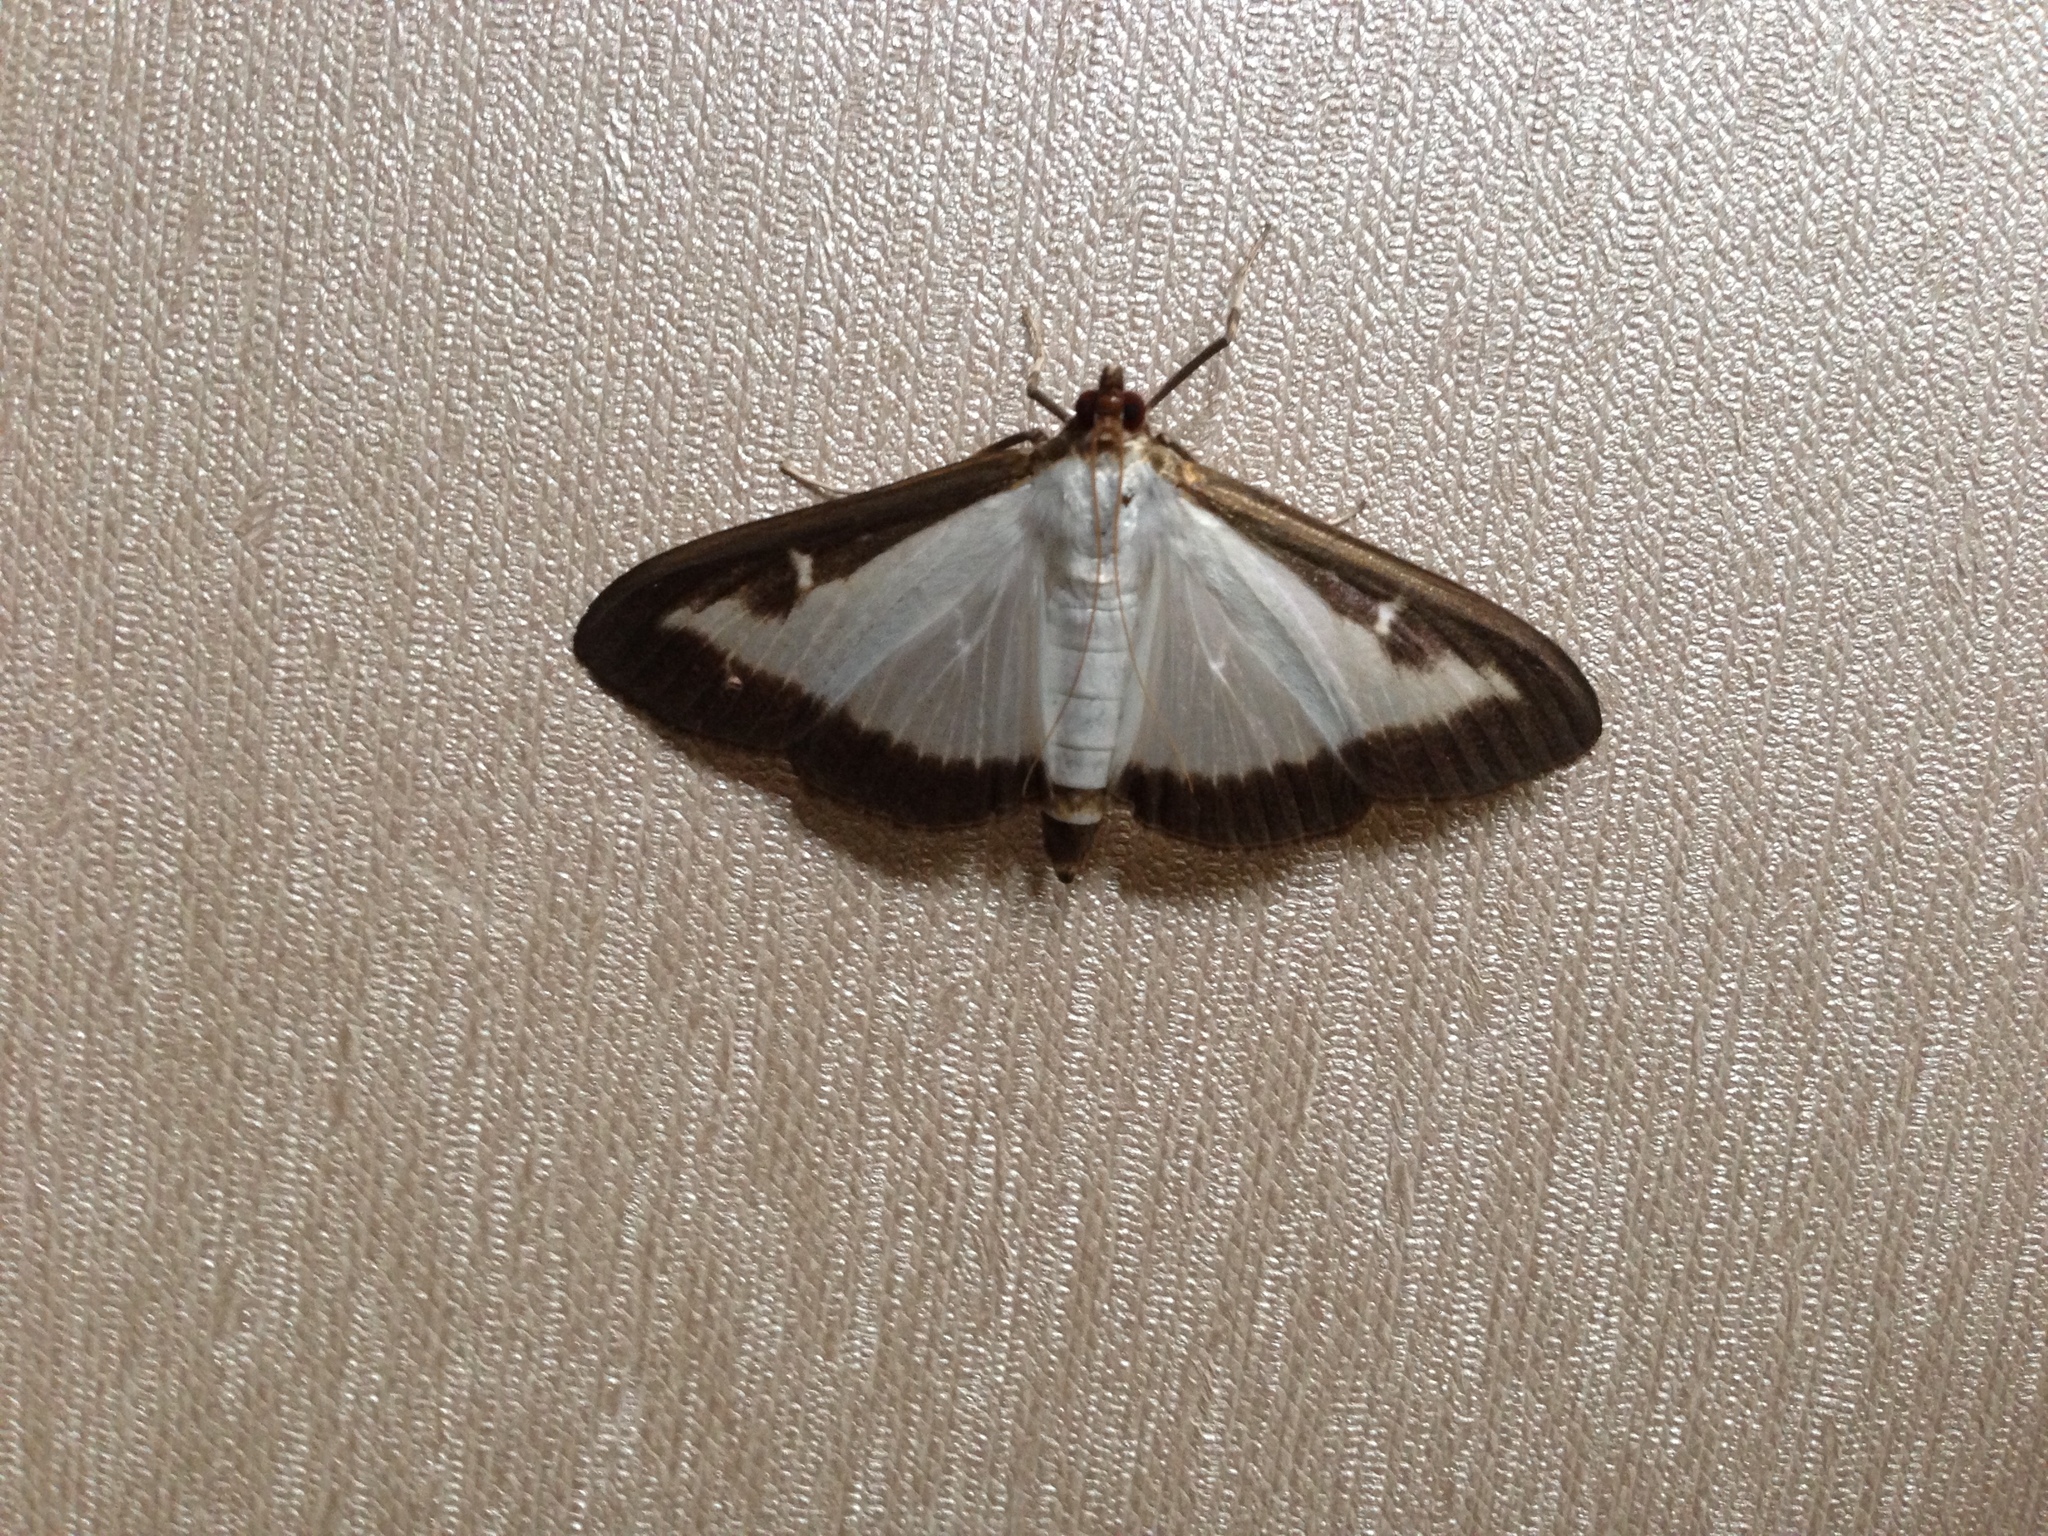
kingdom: Animalia
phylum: Arthropoda
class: Insecta
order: Lepidoptera
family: Crambidae
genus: Cydalima
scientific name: Cydalima perspectalis
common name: Box tree moth
